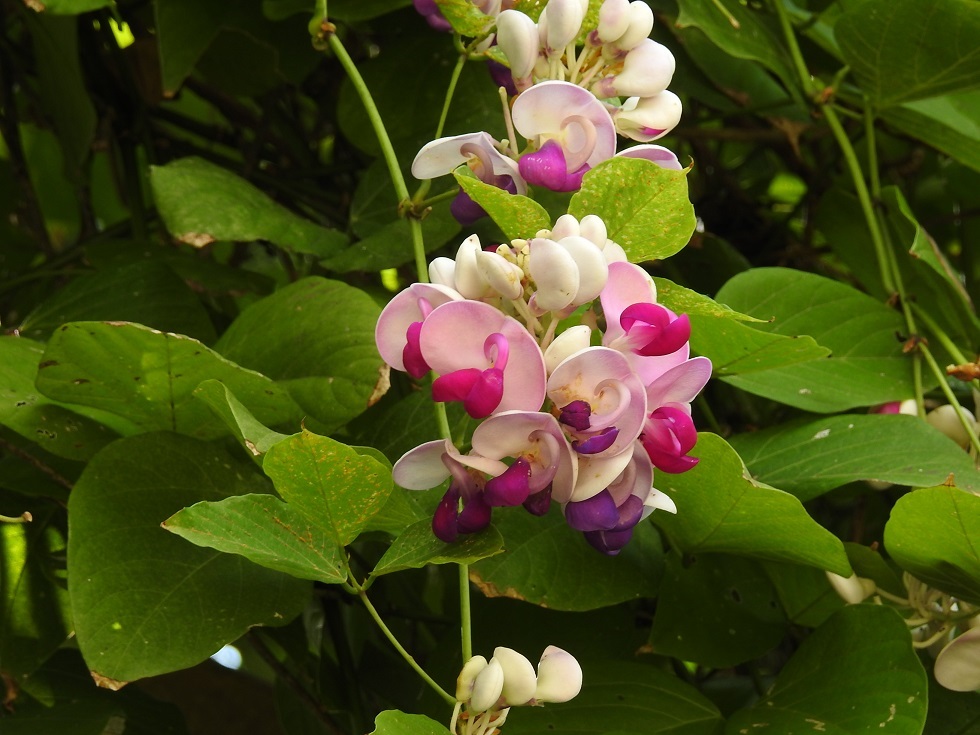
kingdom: Plantae
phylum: Tracheophyta
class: Magnoliopsida
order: Fabales
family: Fabaceae
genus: Ramirezella
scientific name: Ramirezella penduliflora
